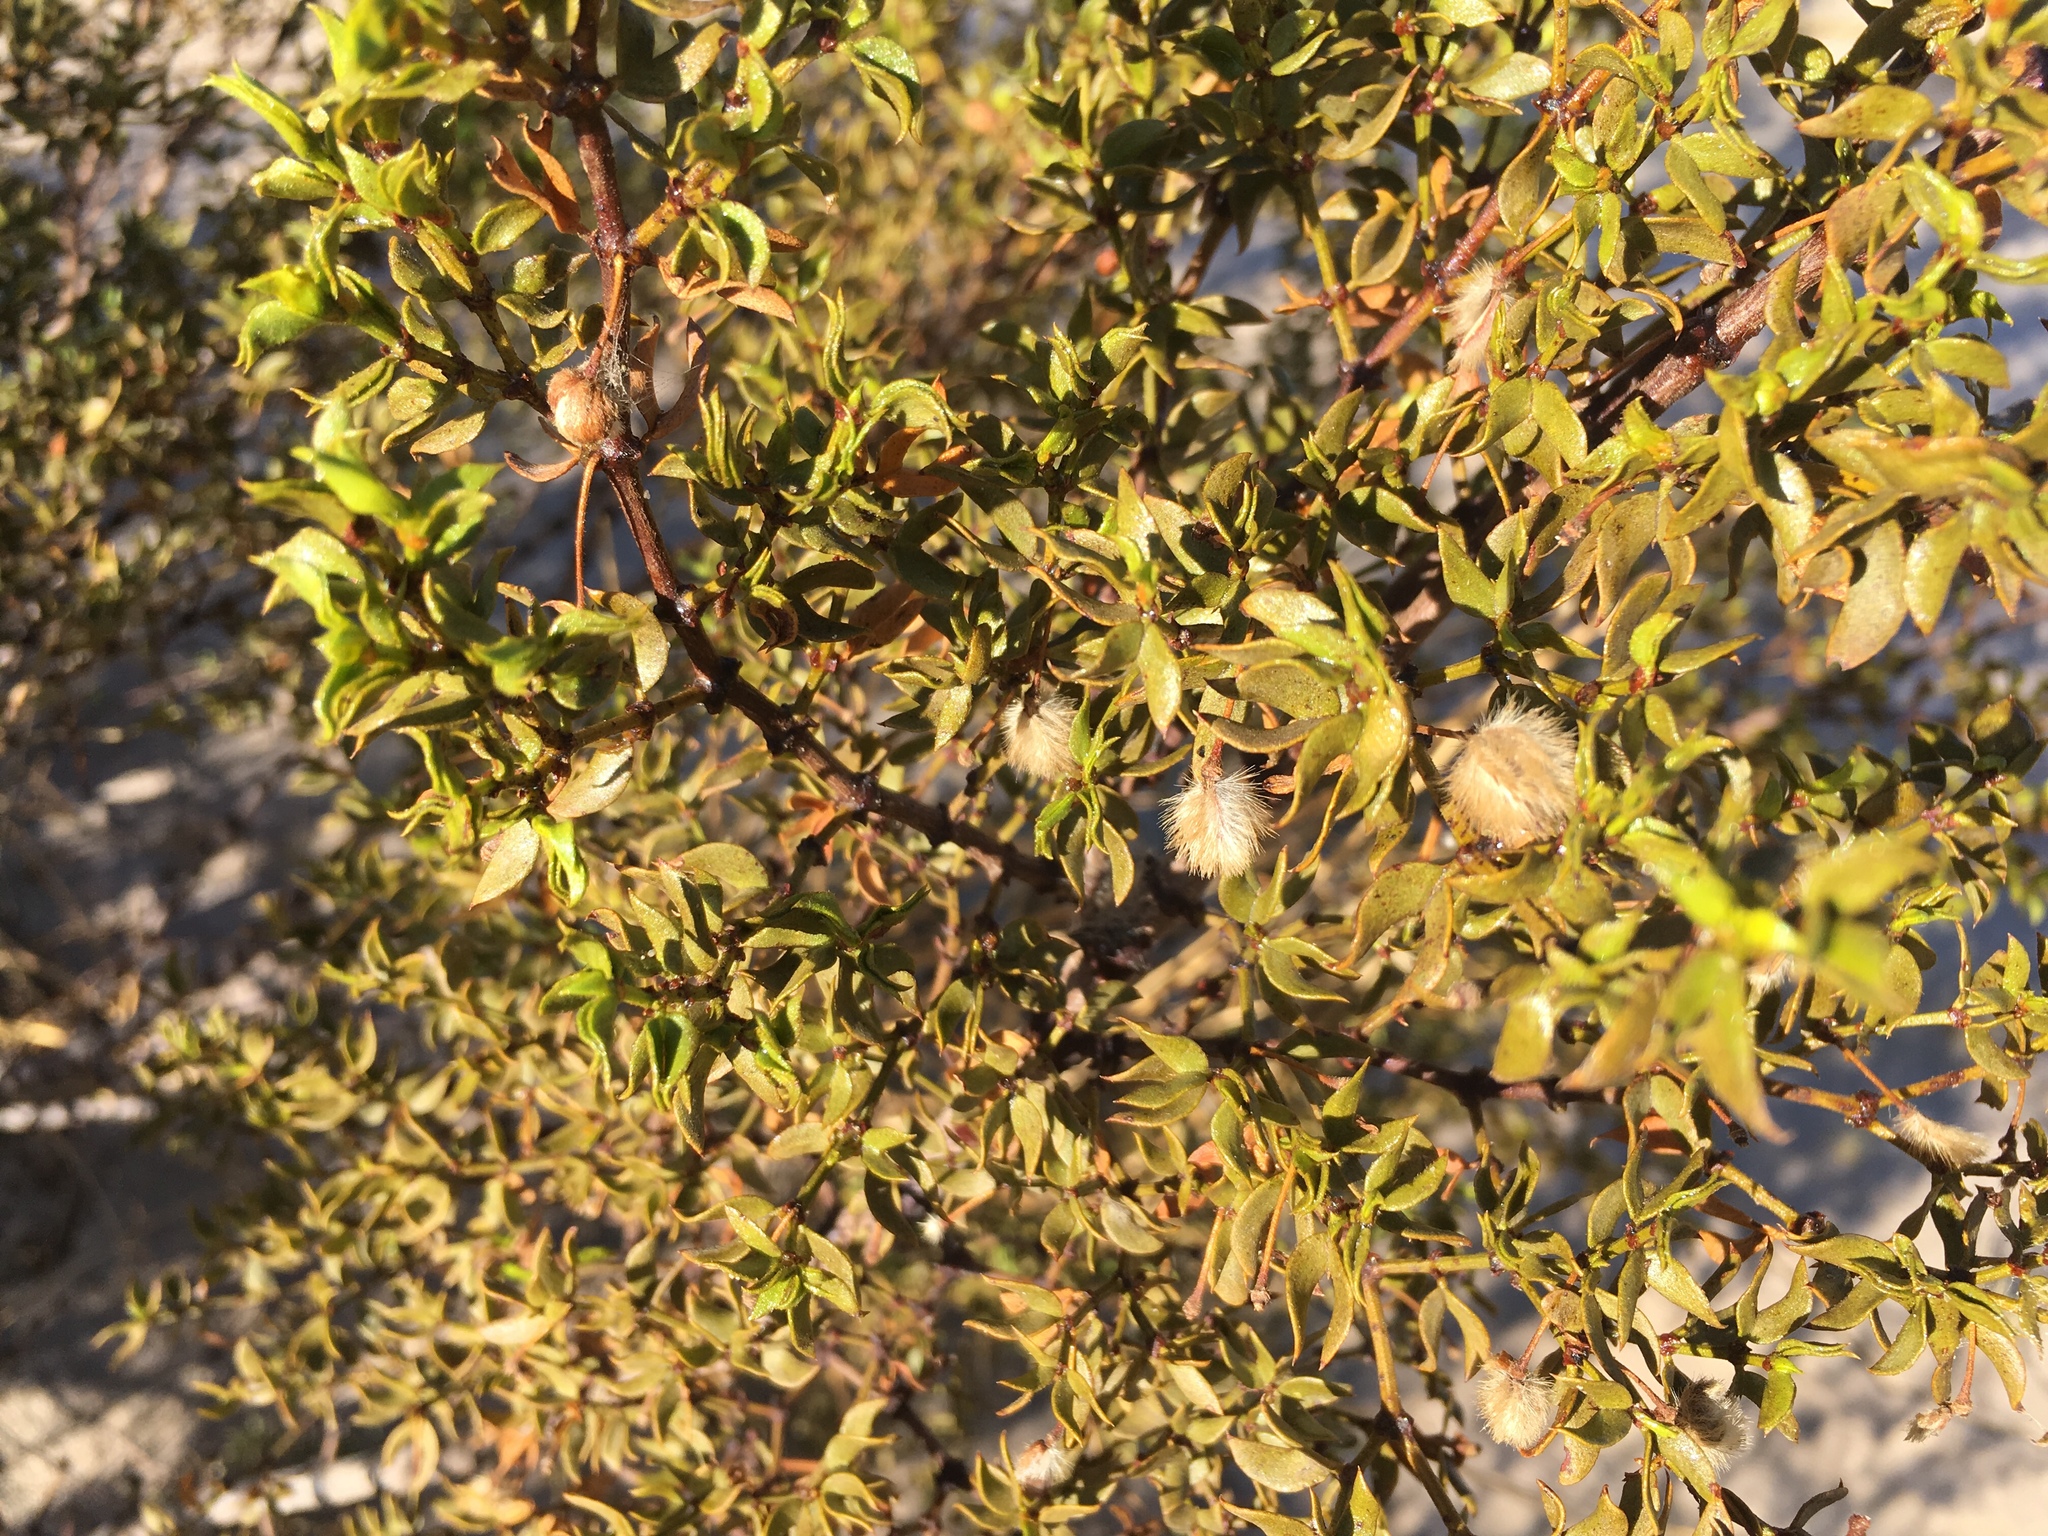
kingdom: Plantae
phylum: Tracheophyta
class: Magnoliopsida
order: Zygophyllales
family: Zygophyllaceae
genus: Larrea
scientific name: Larrea tridentata
